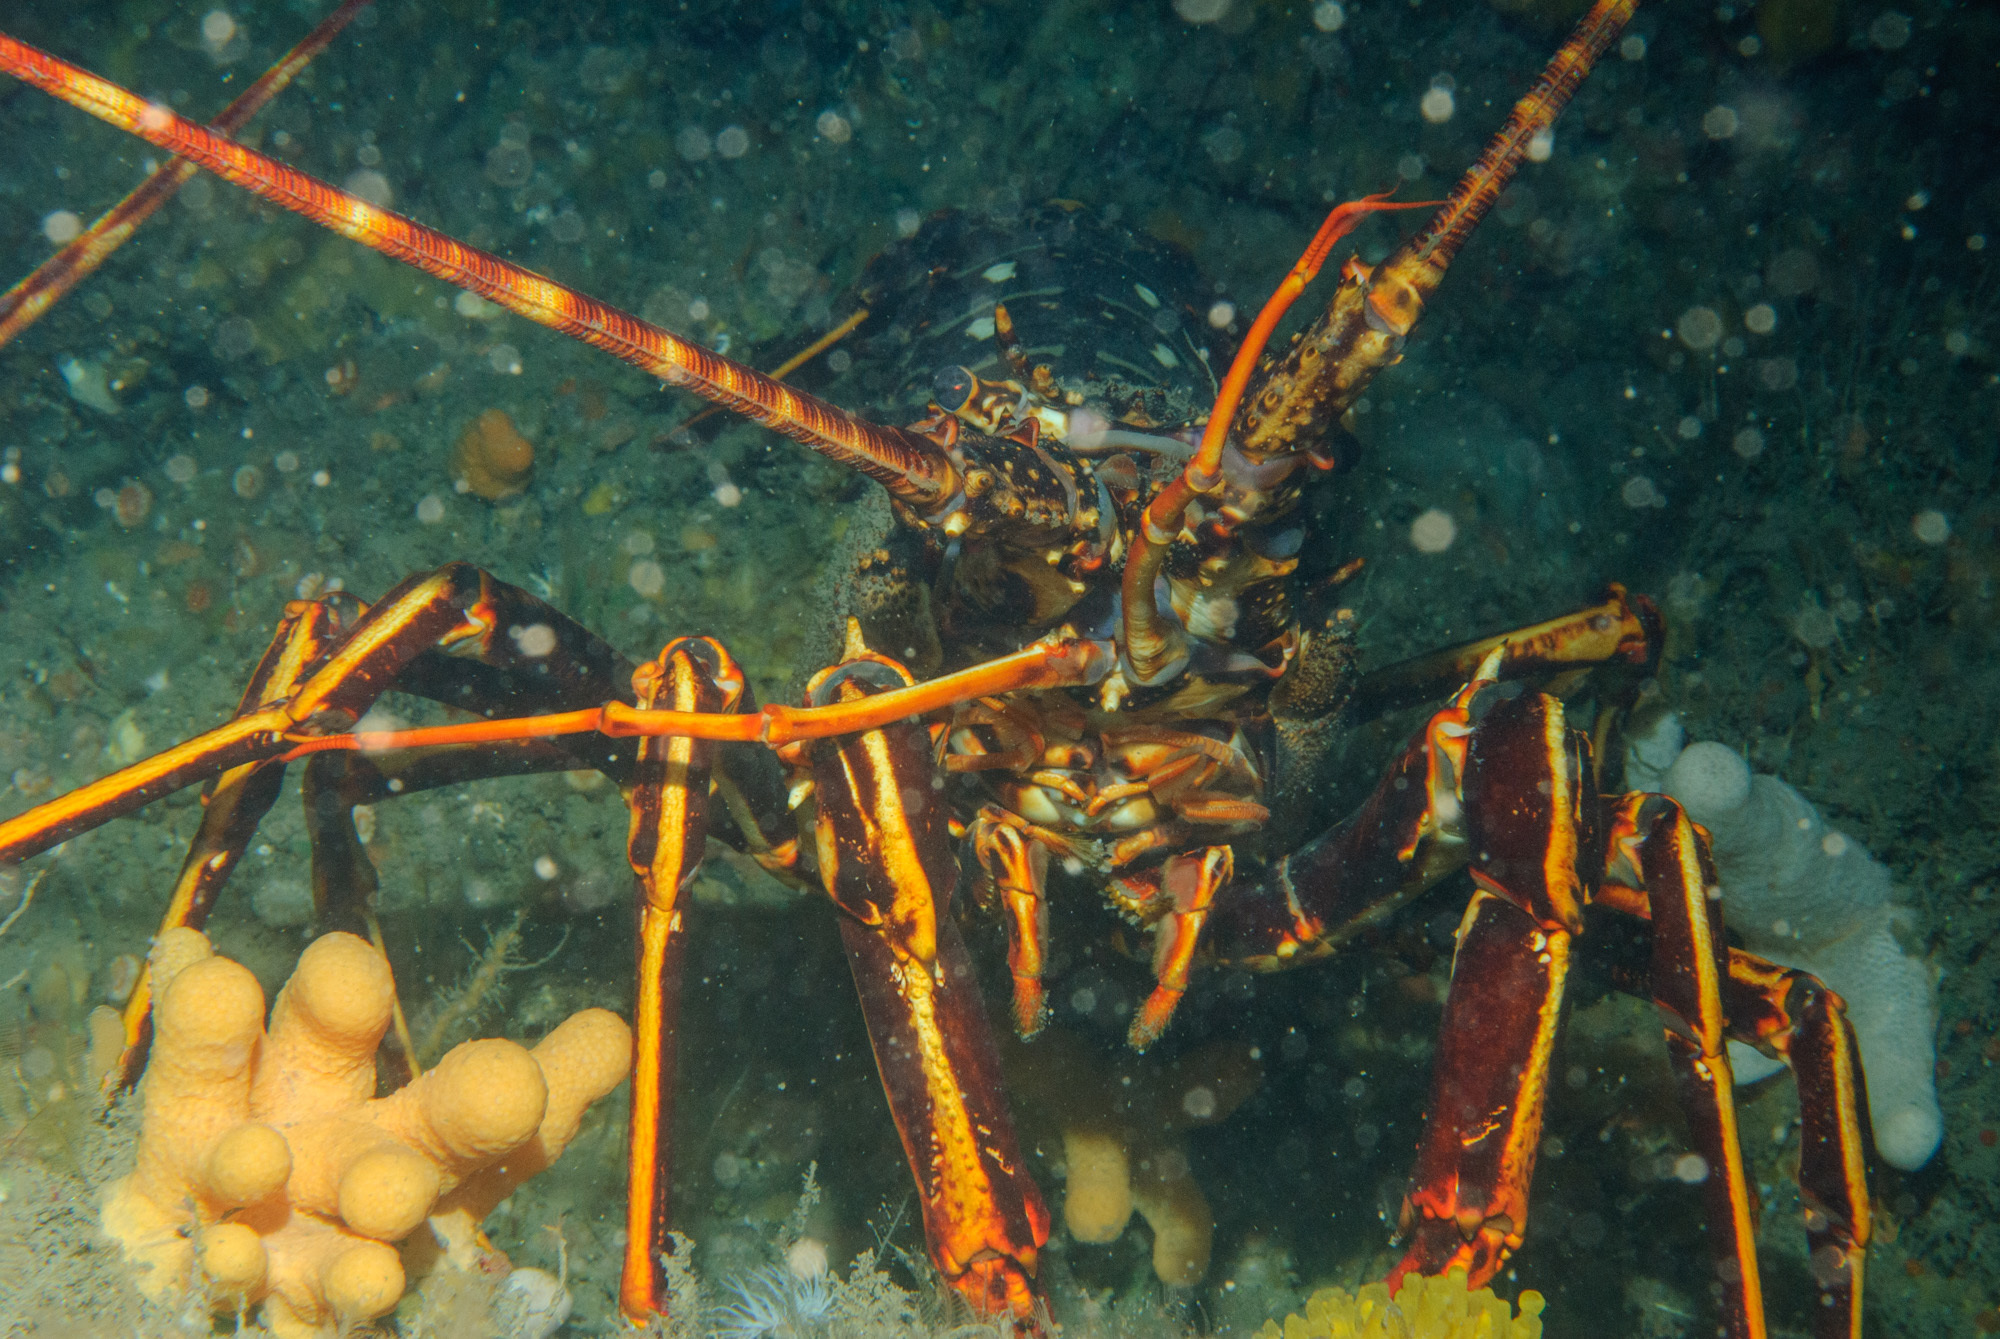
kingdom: Animalia
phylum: Arthropoda
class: Malacostraca
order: Decapoda
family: Palinuridae
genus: Palinurus
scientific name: Palinurus elephas
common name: European spiny lobster
